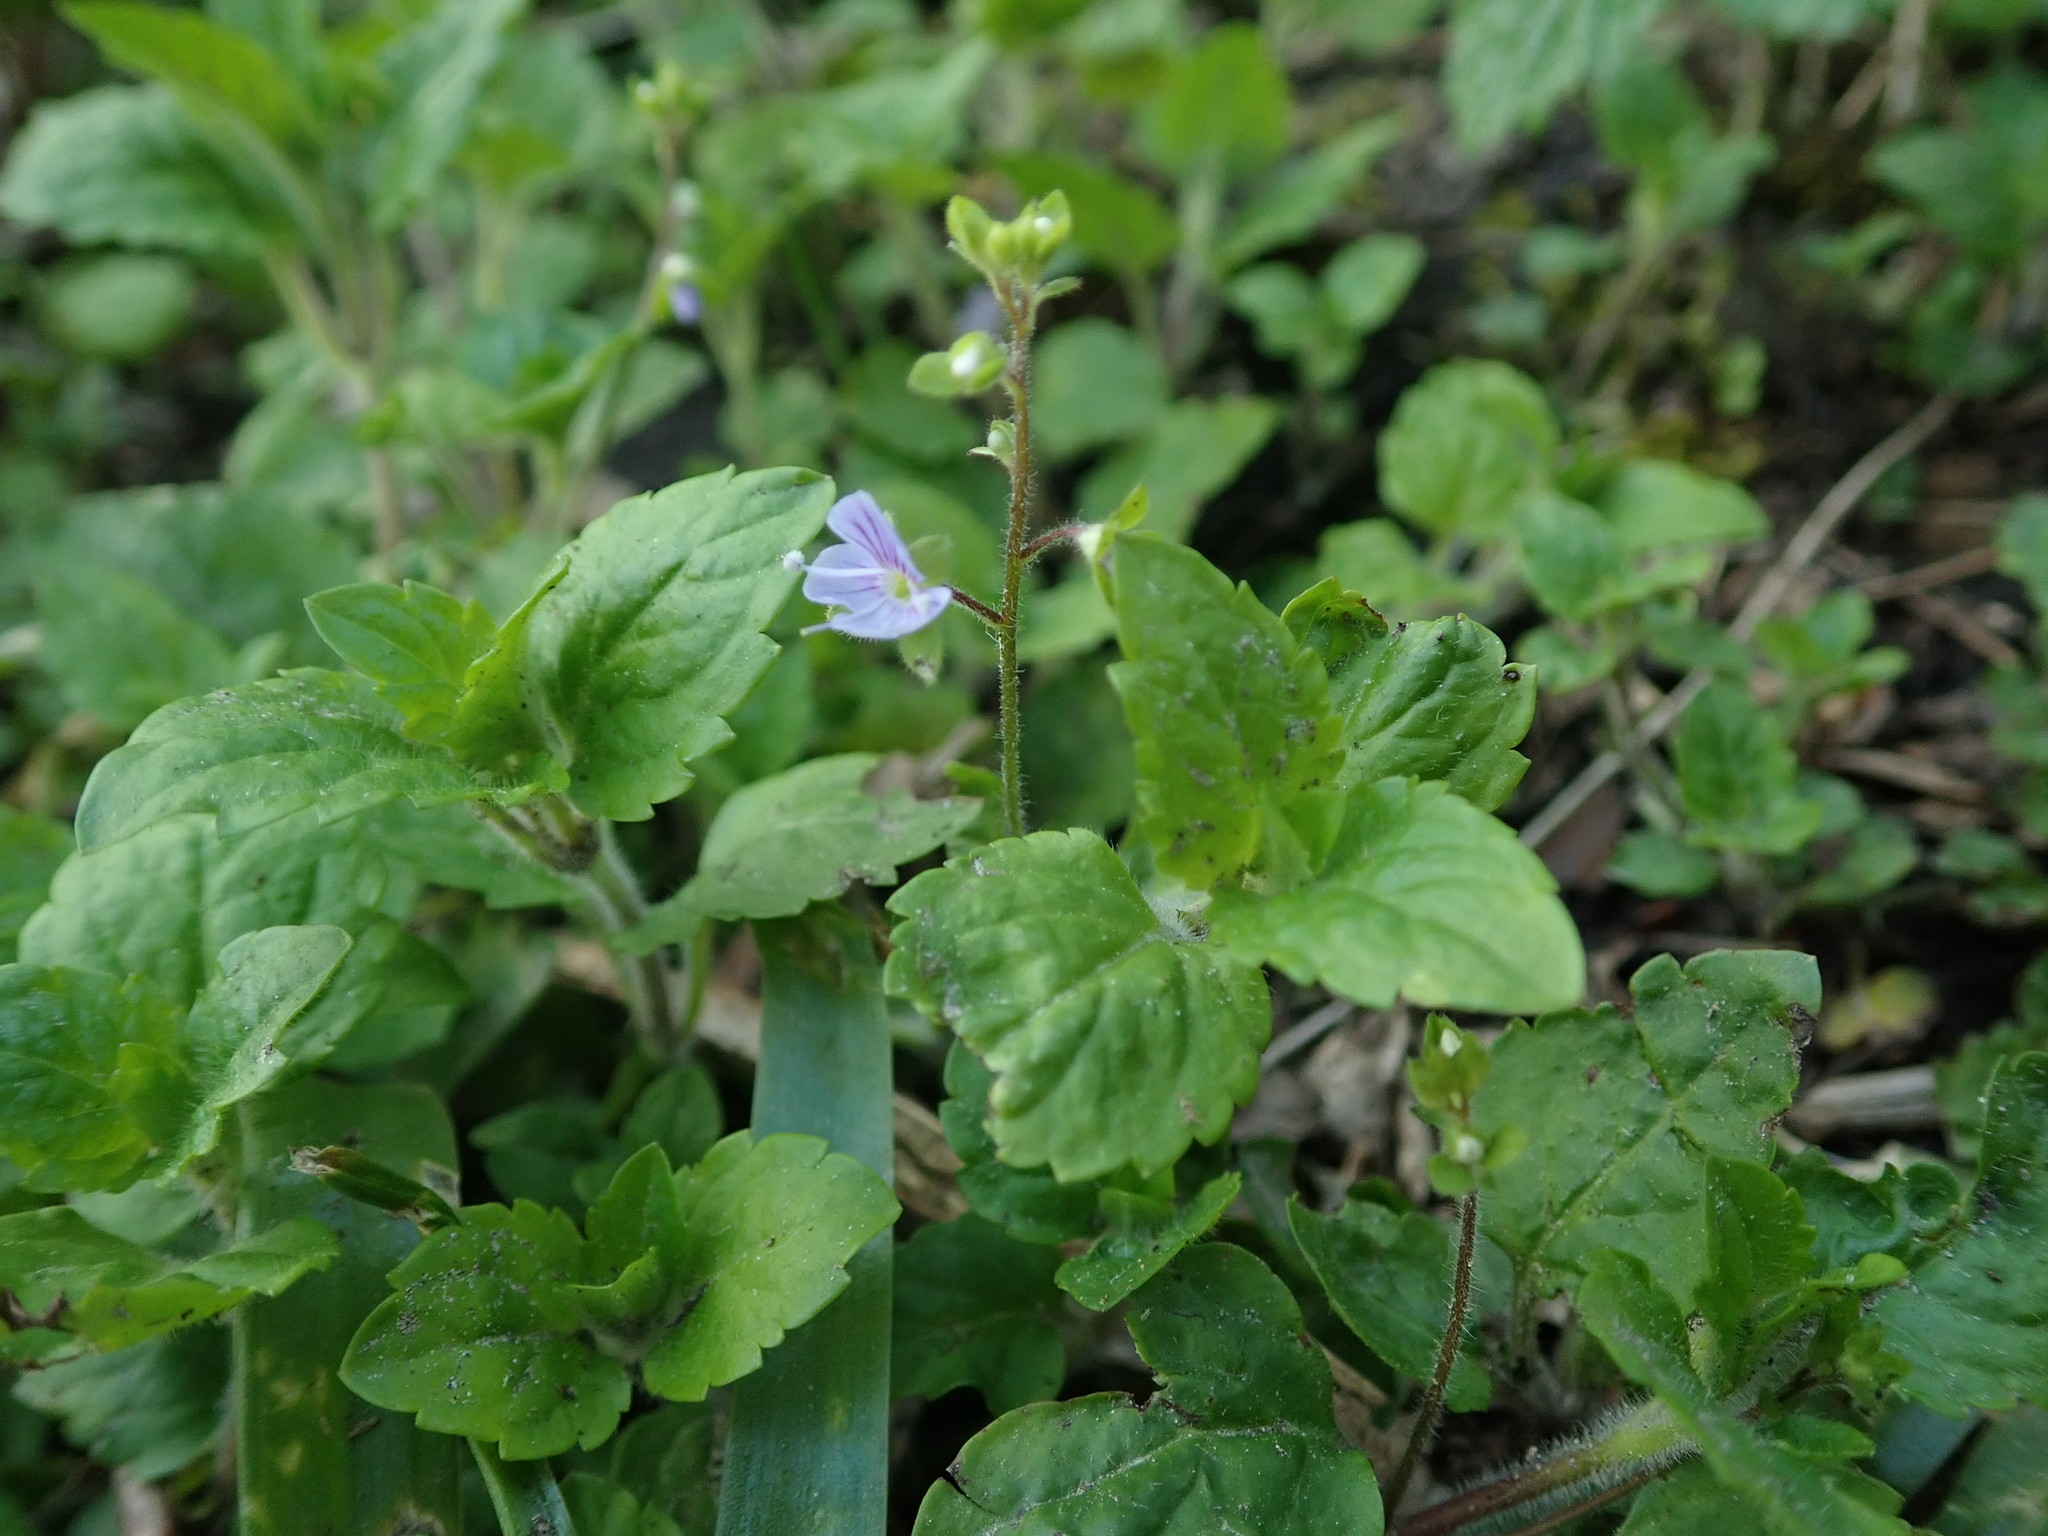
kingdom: Plantae
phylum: Tracheophyta
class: Magnoliopsida
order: Lamiales
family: Plantaginaceae
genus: Veronica
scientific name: Veronica montana
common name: Wood speedwell
